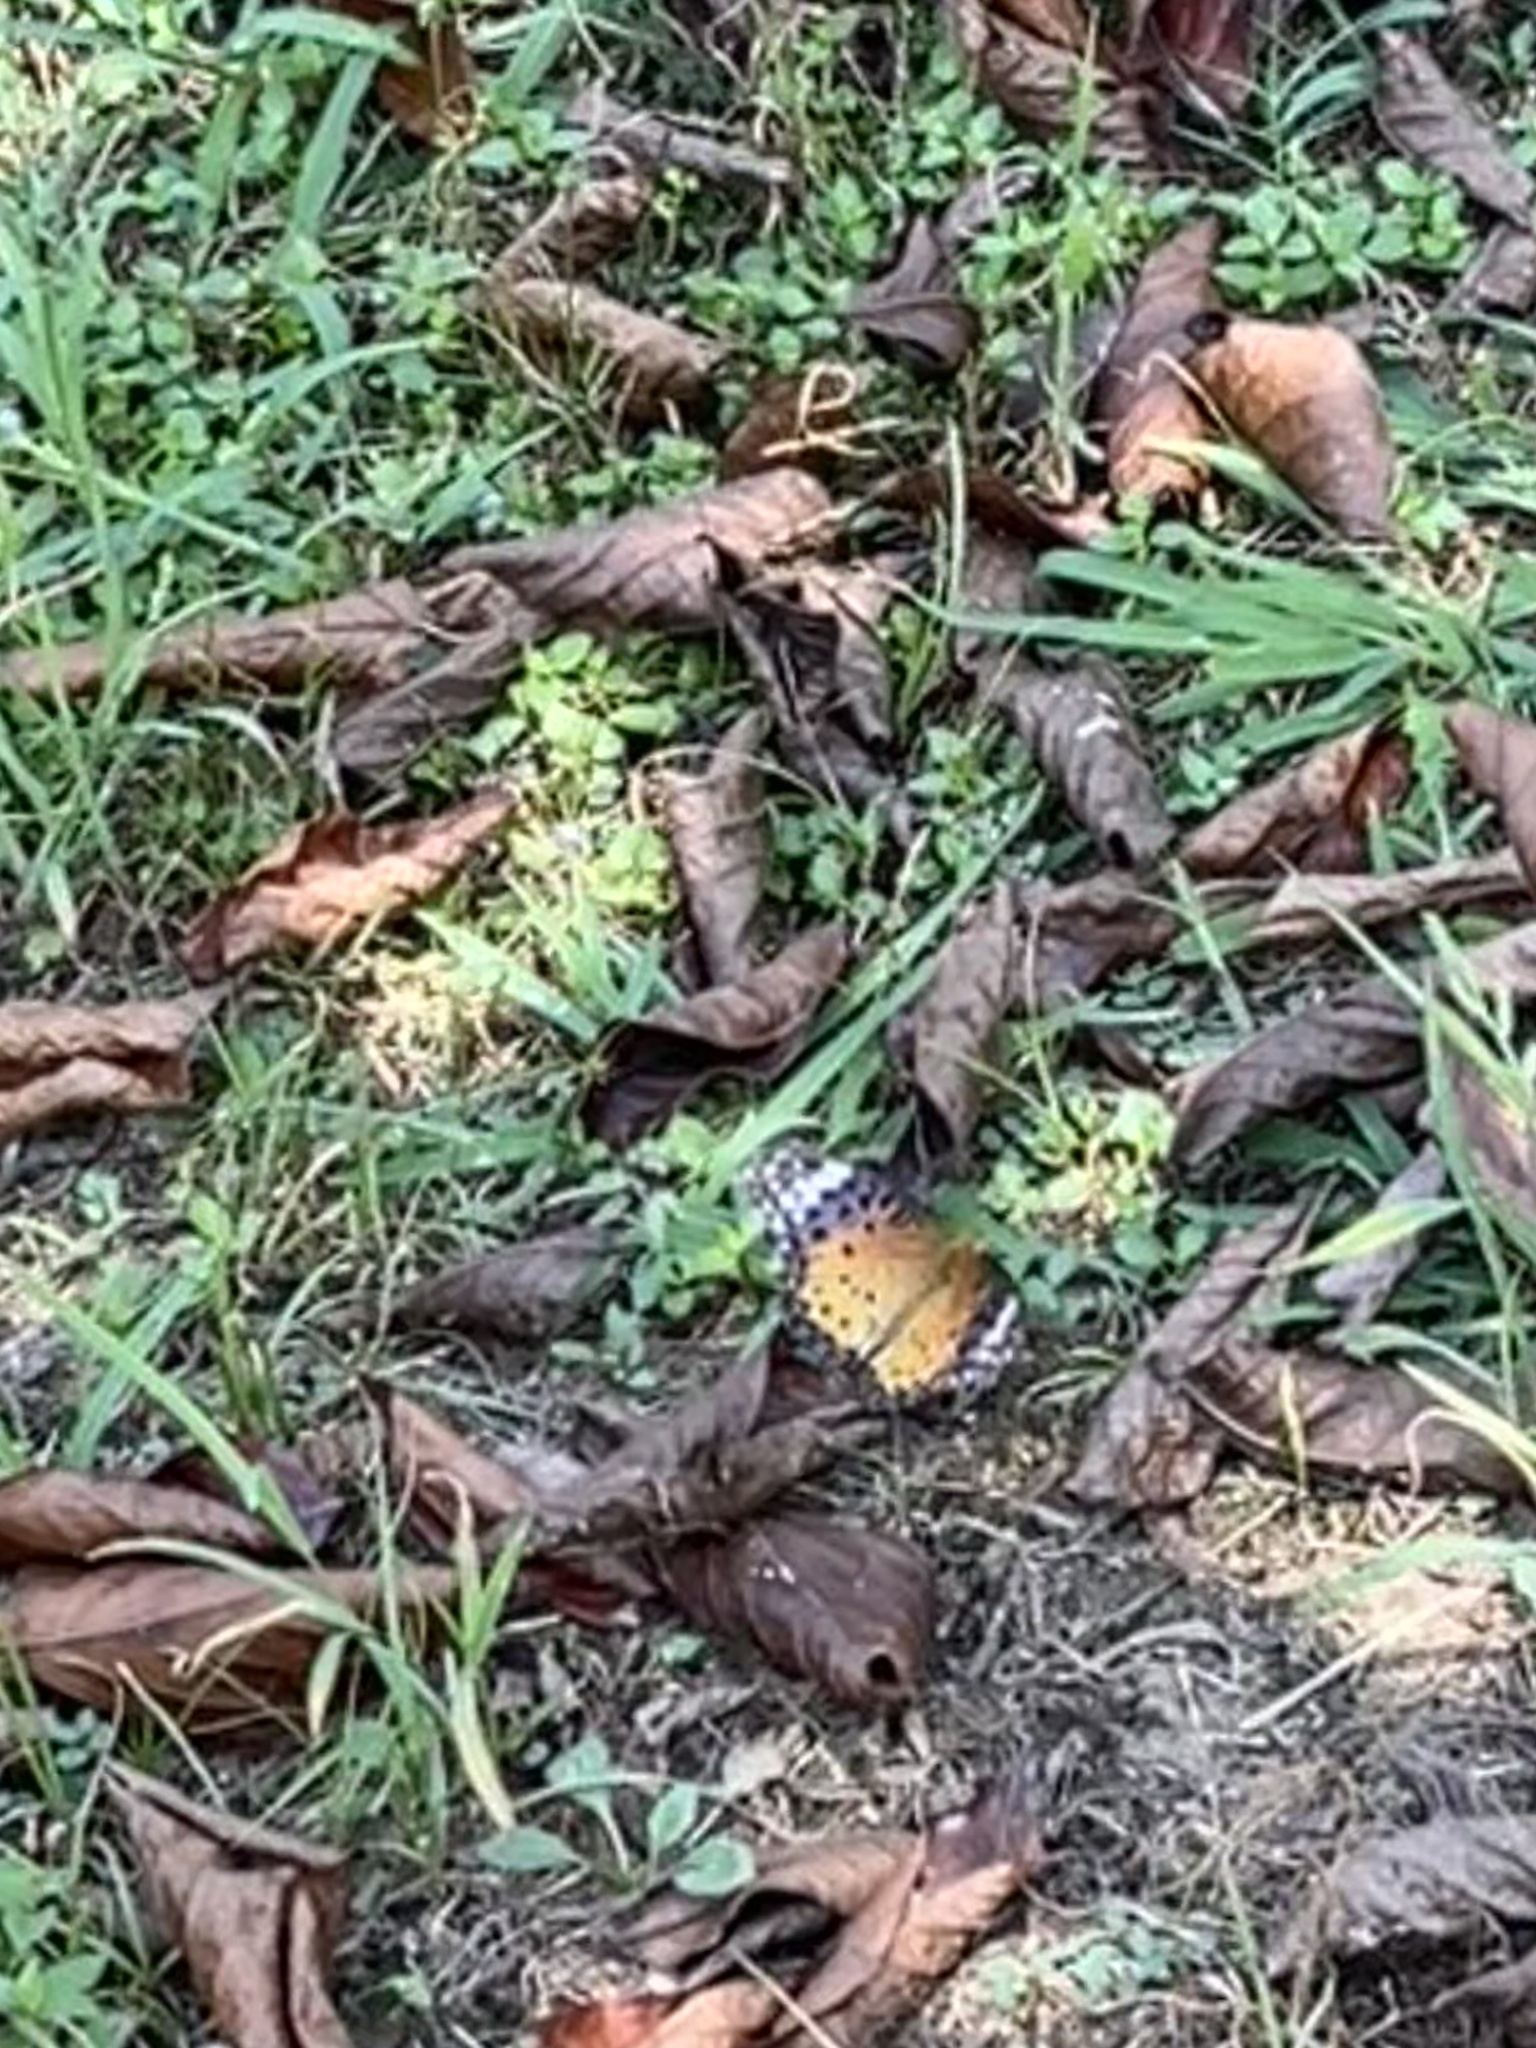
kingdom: Animalia
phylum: Arthropoda
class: Insecta
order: Lepidoptera
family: Nymphalidae
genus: Argynnis
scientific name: Argynnis hyperbius
